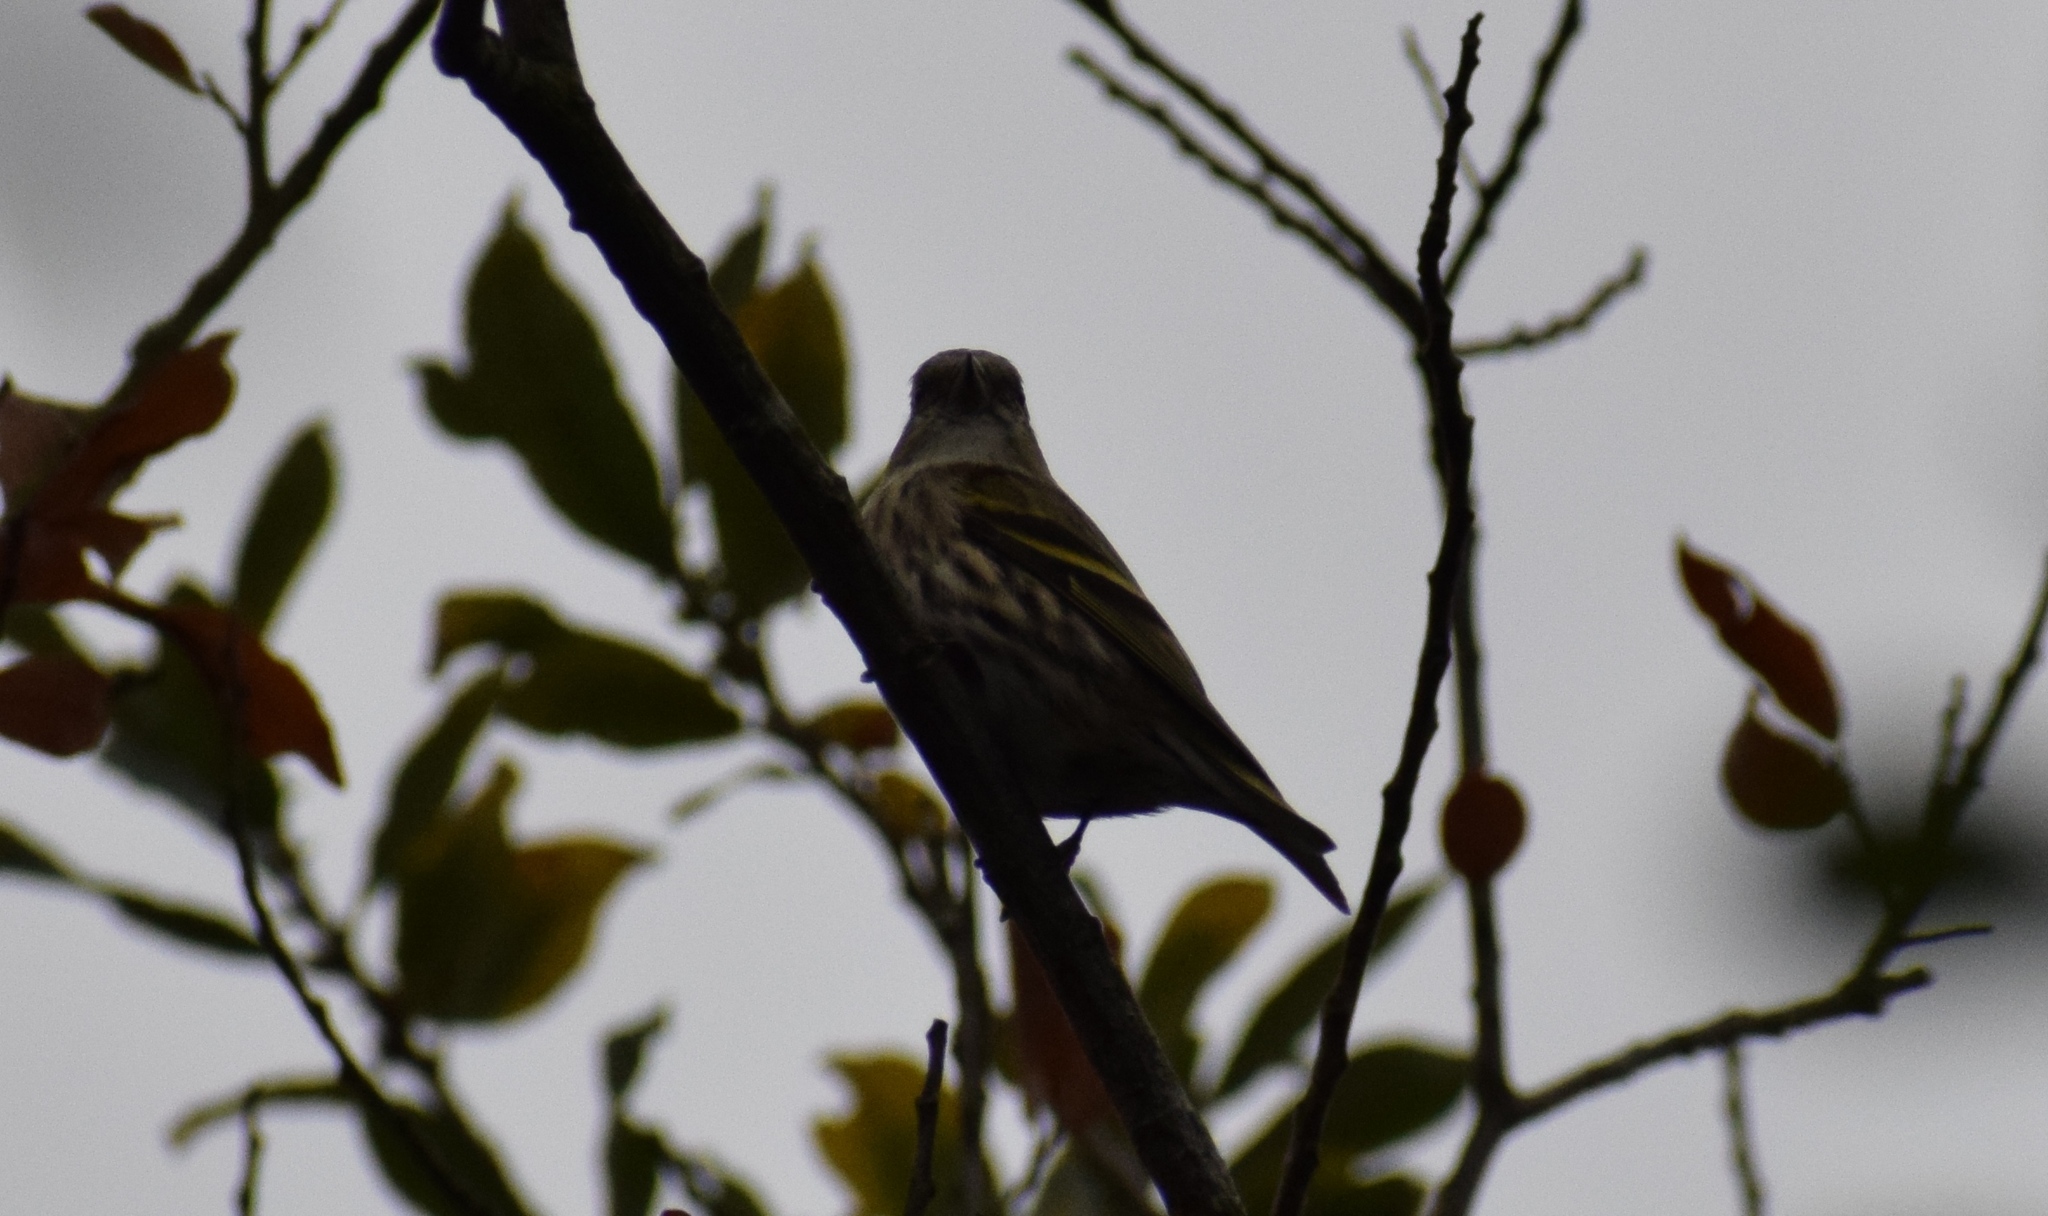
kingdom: Animalia
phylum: Chordata
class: Aves
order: Passeriformes
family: Fringillidae
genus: Spinus
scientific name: Spinus spinus
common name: Eurasian siskin
